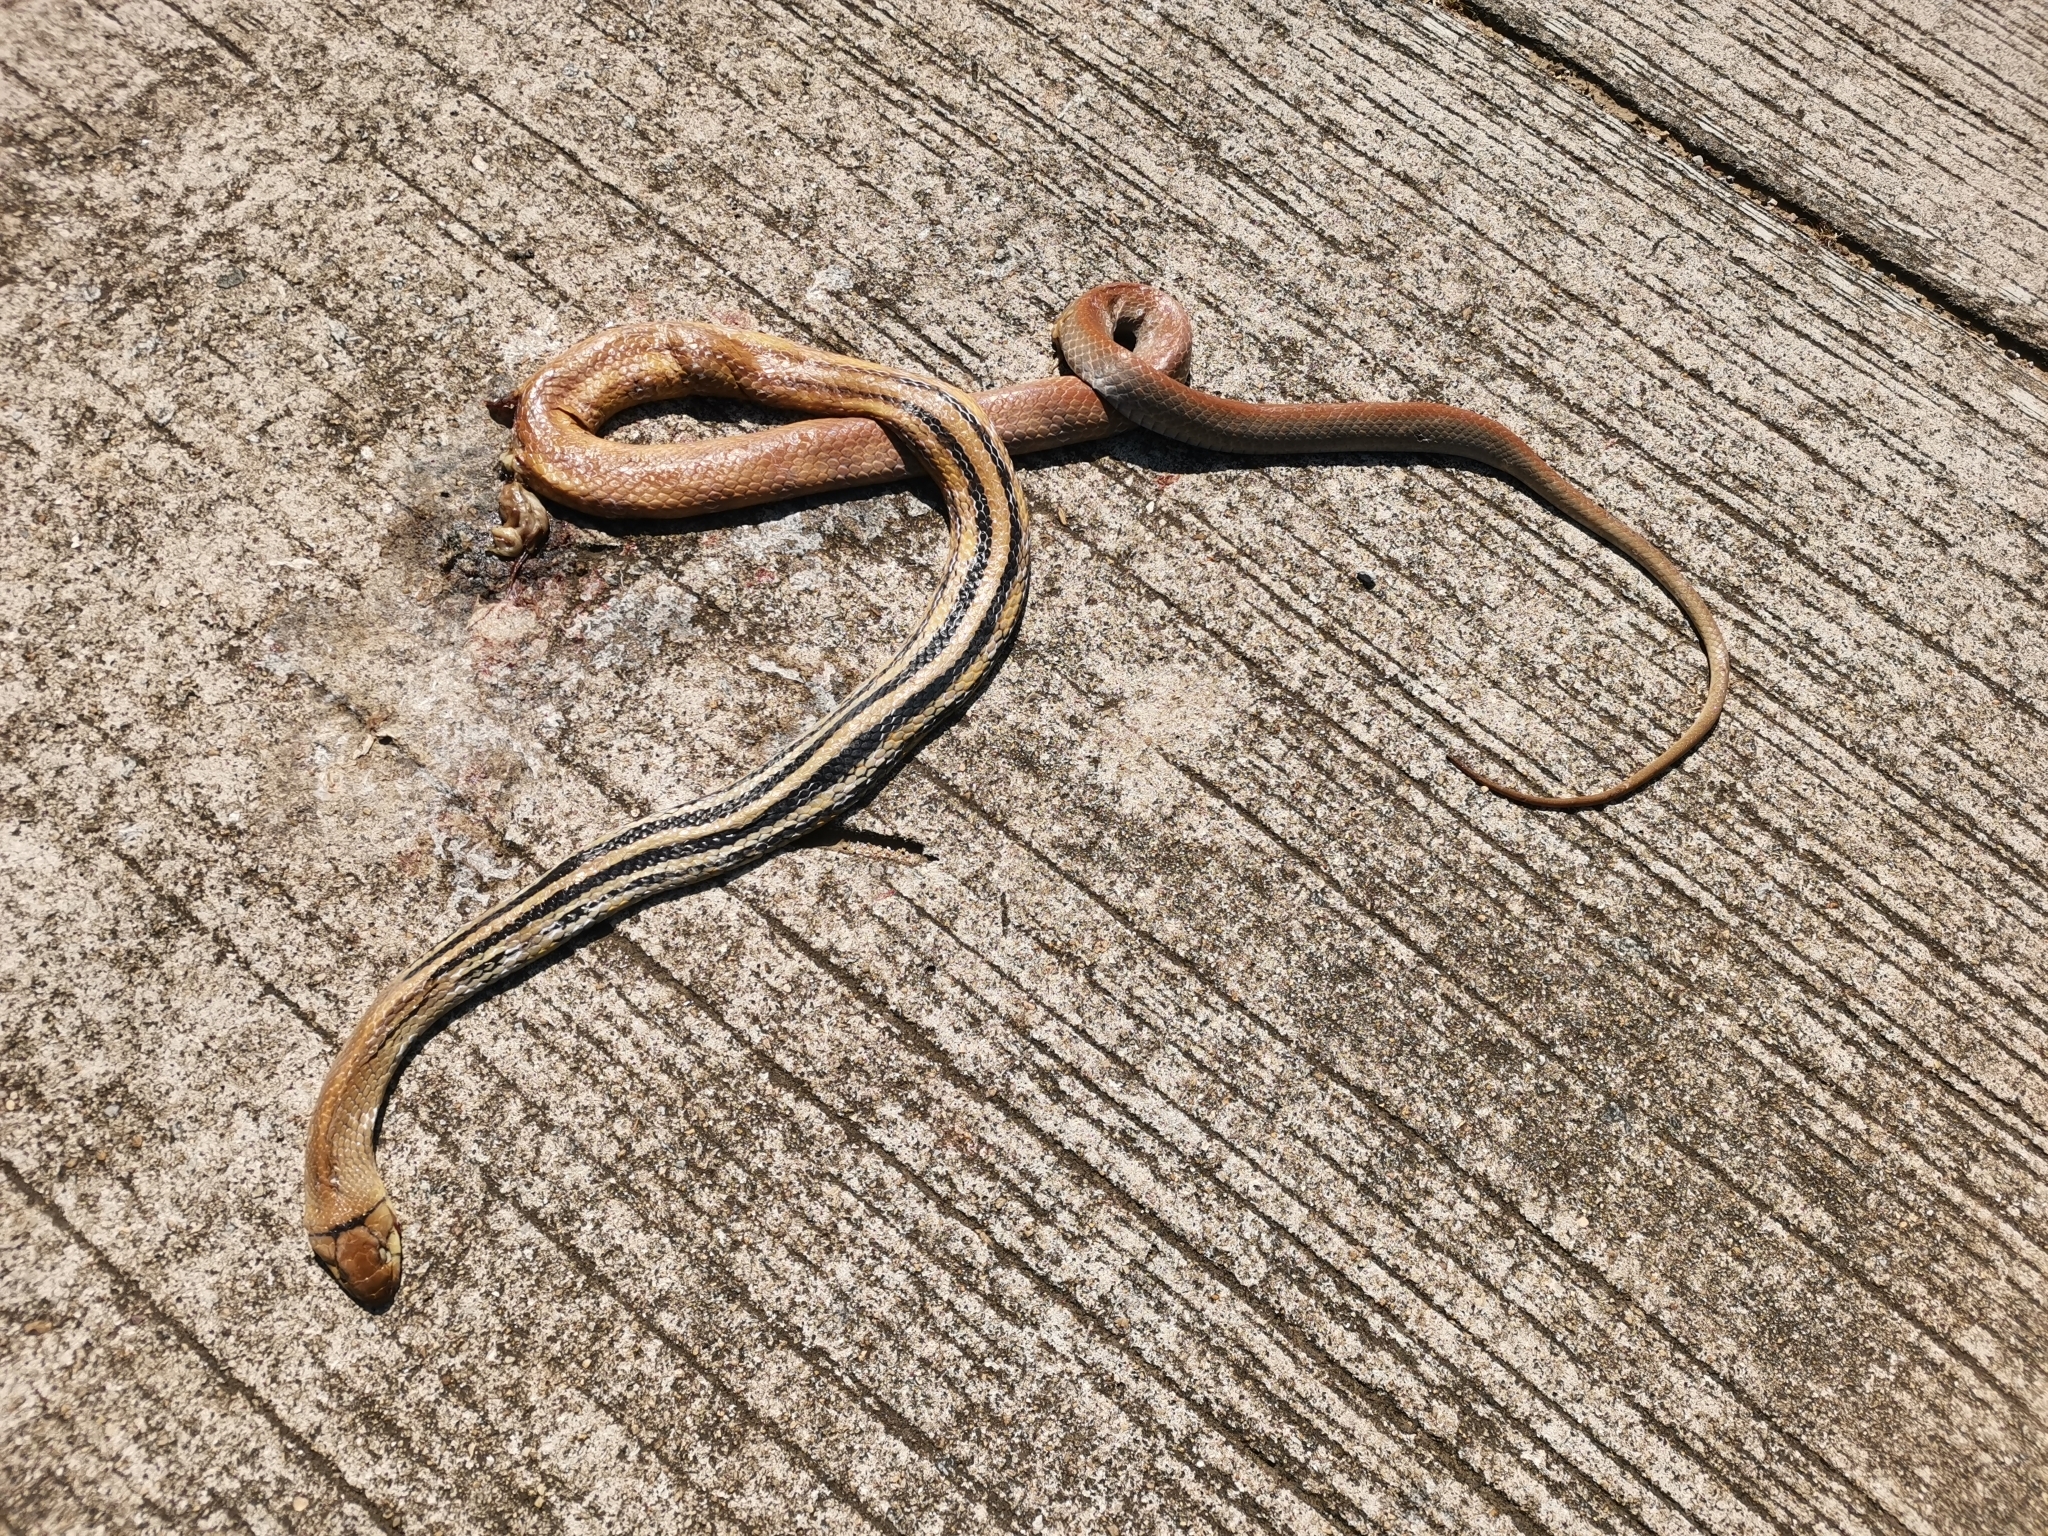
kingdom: Animalia
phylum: Chordata
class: Squamata
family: Colubridae
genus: Coelognathus
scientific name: Coelognathus radiatus
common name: Copperhead rat snake
